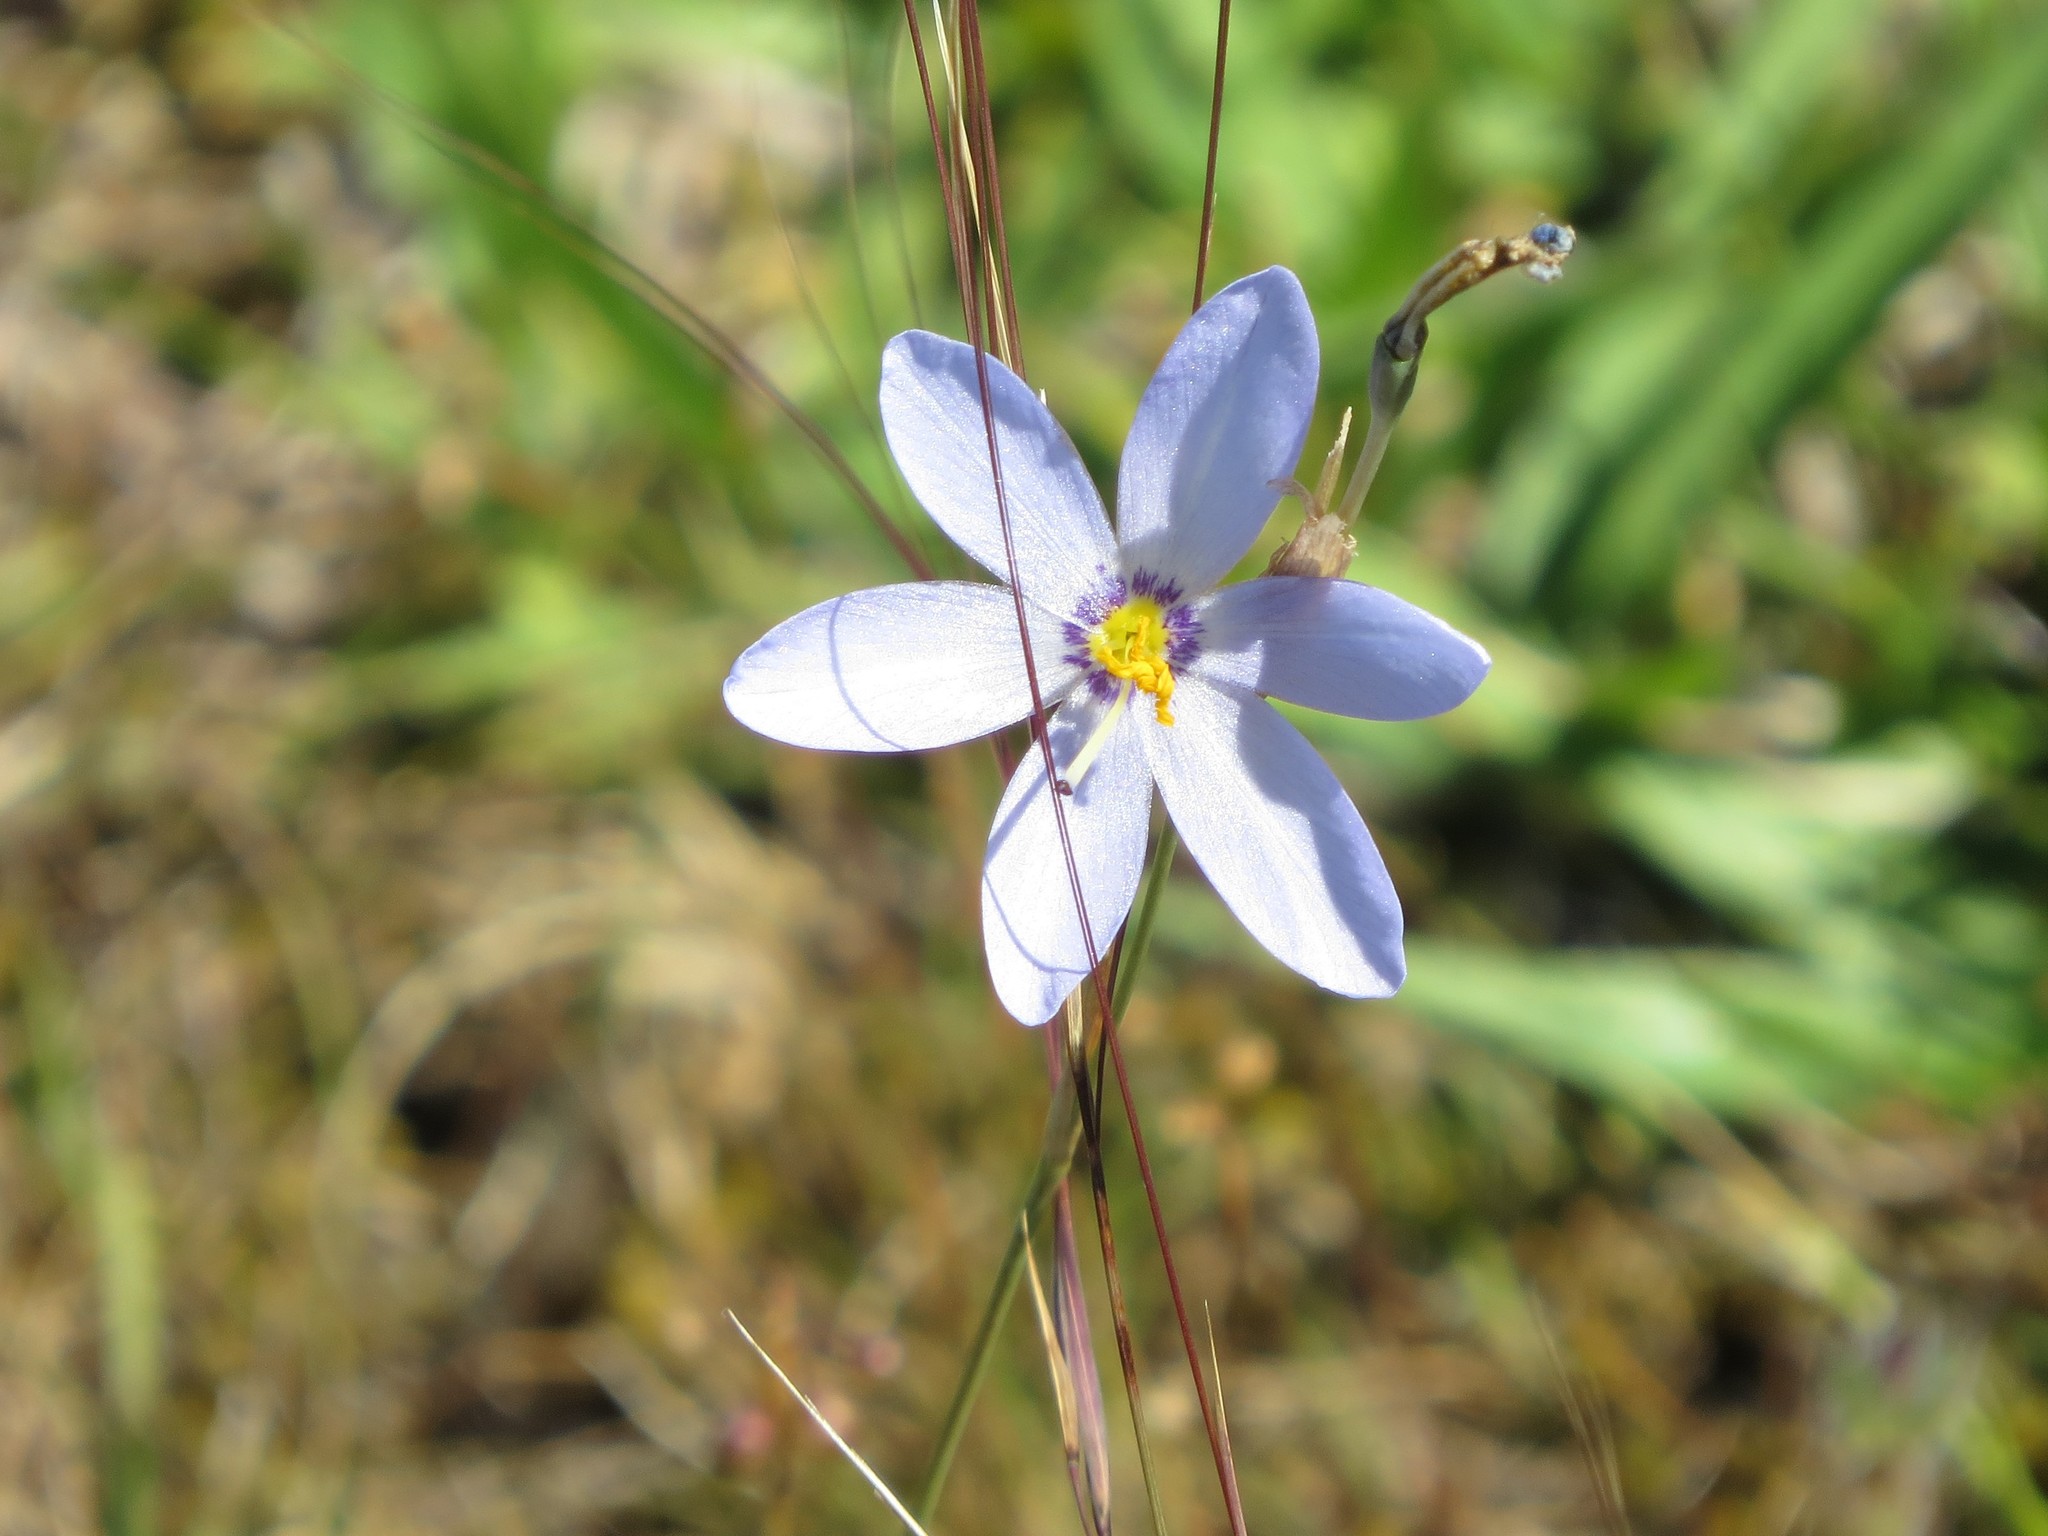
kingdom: Plantae
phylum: Tracheophyta
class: Liliopsida
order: Asparagales
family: Iridaceae
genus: Calydorea
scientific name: Calydorea charruana
